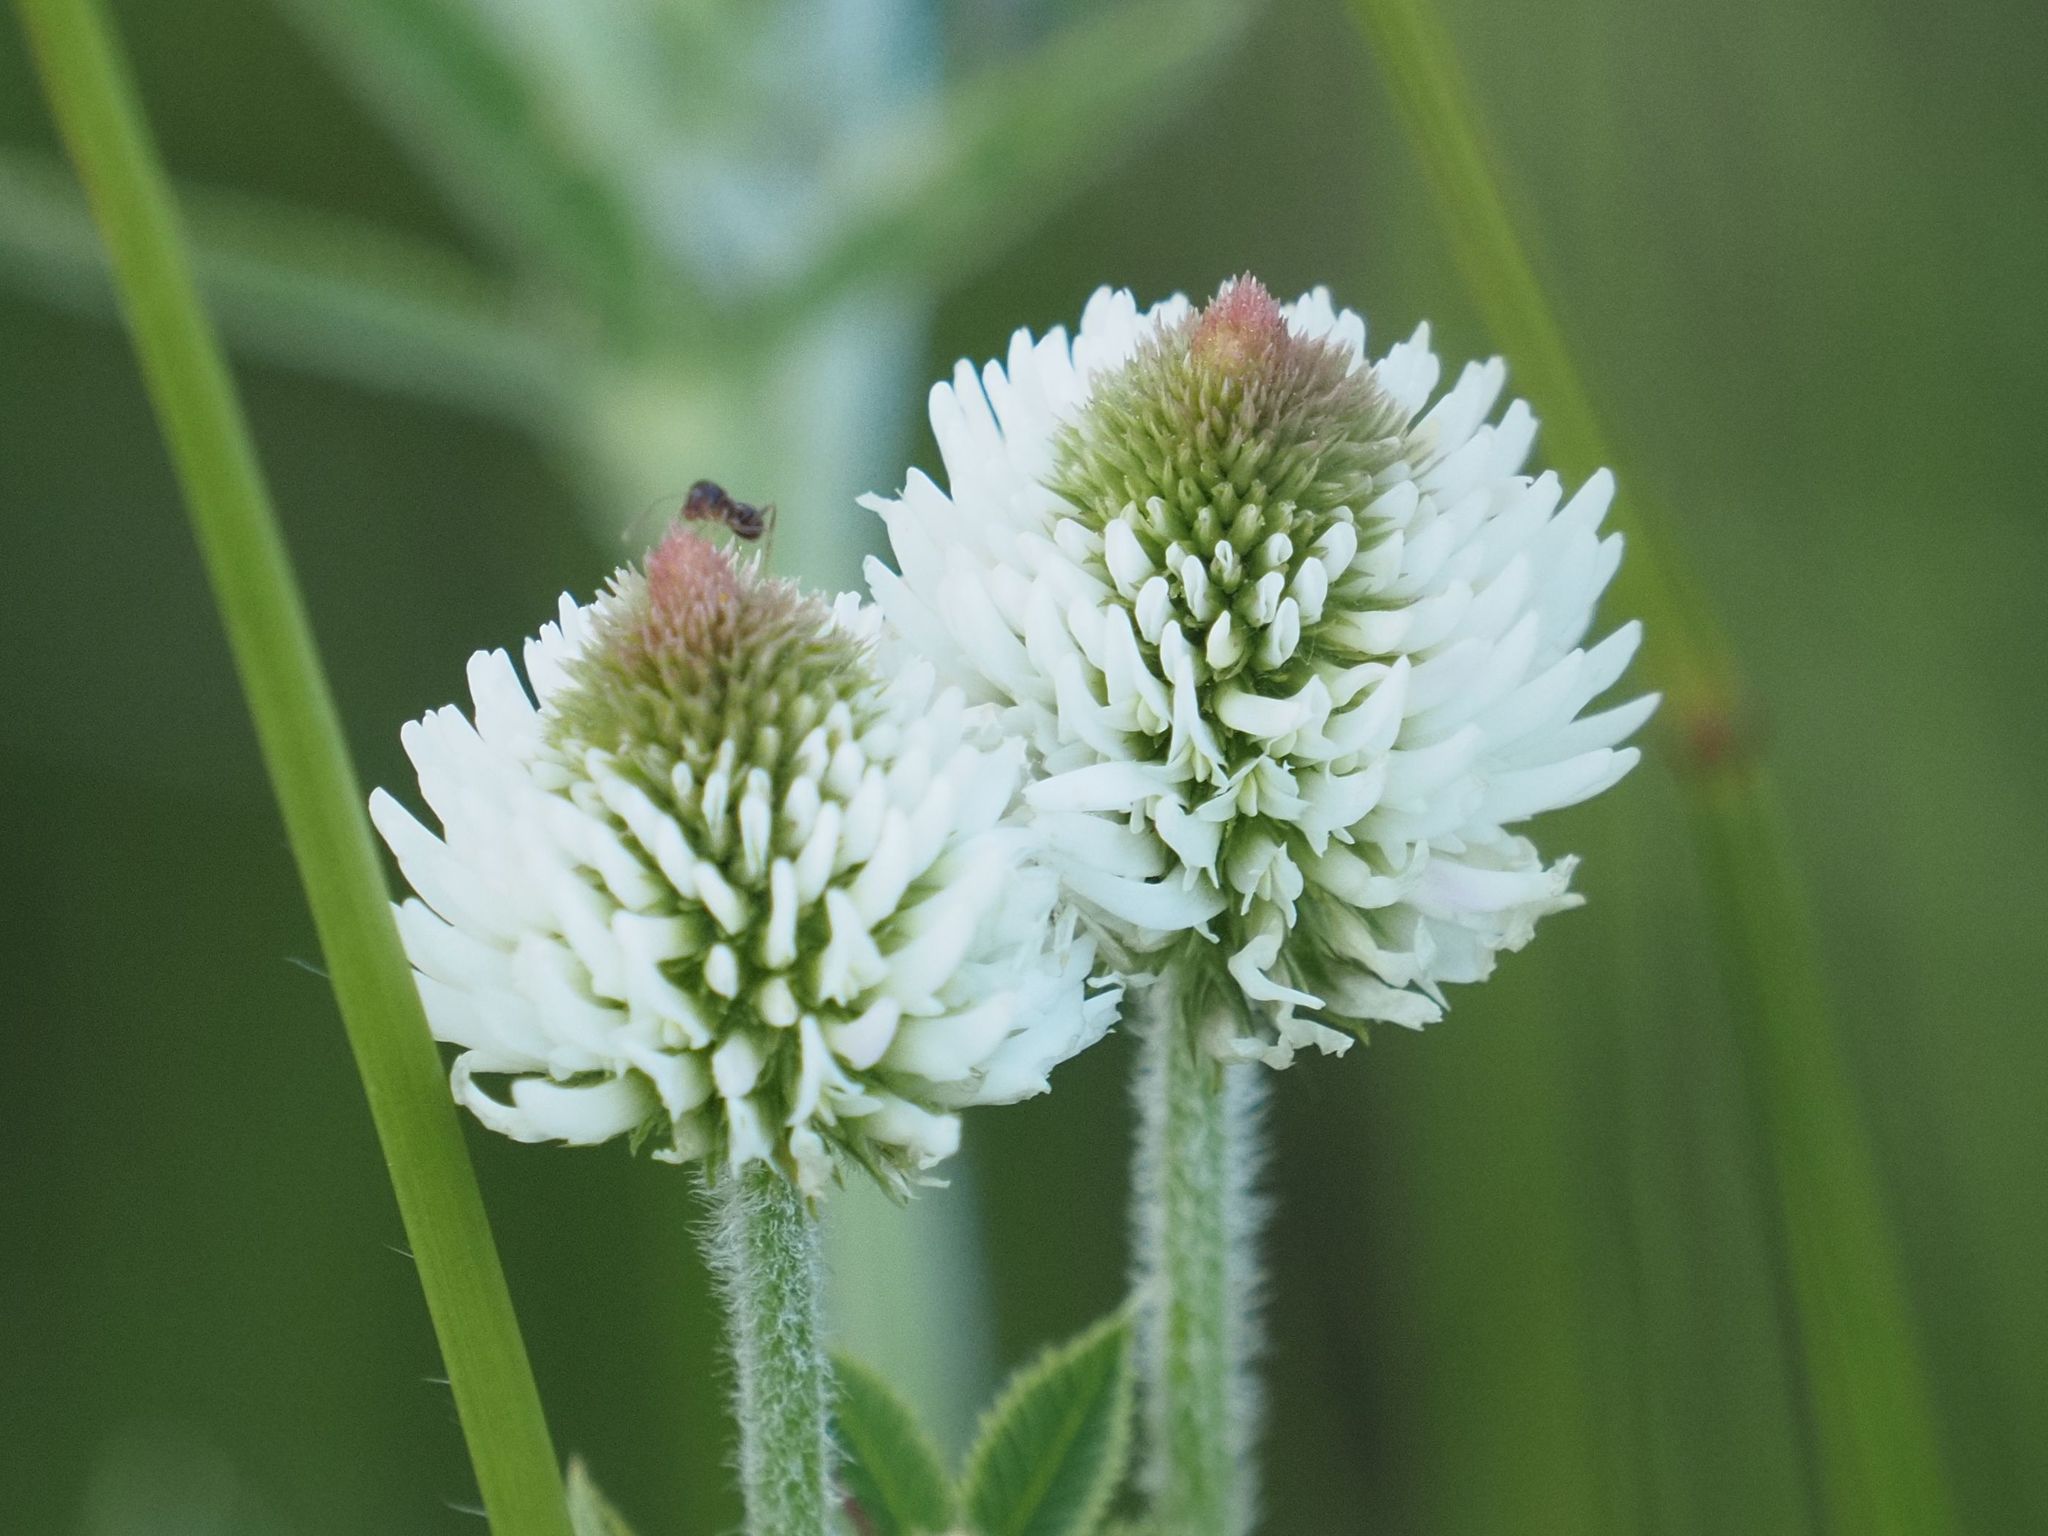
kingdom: Plantae
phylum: Tracheophyta
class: Magnoliopsida
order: Fabales
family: Fabaceae
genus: Trifolium
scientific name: Trifolium montanum
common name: Mountain clover
